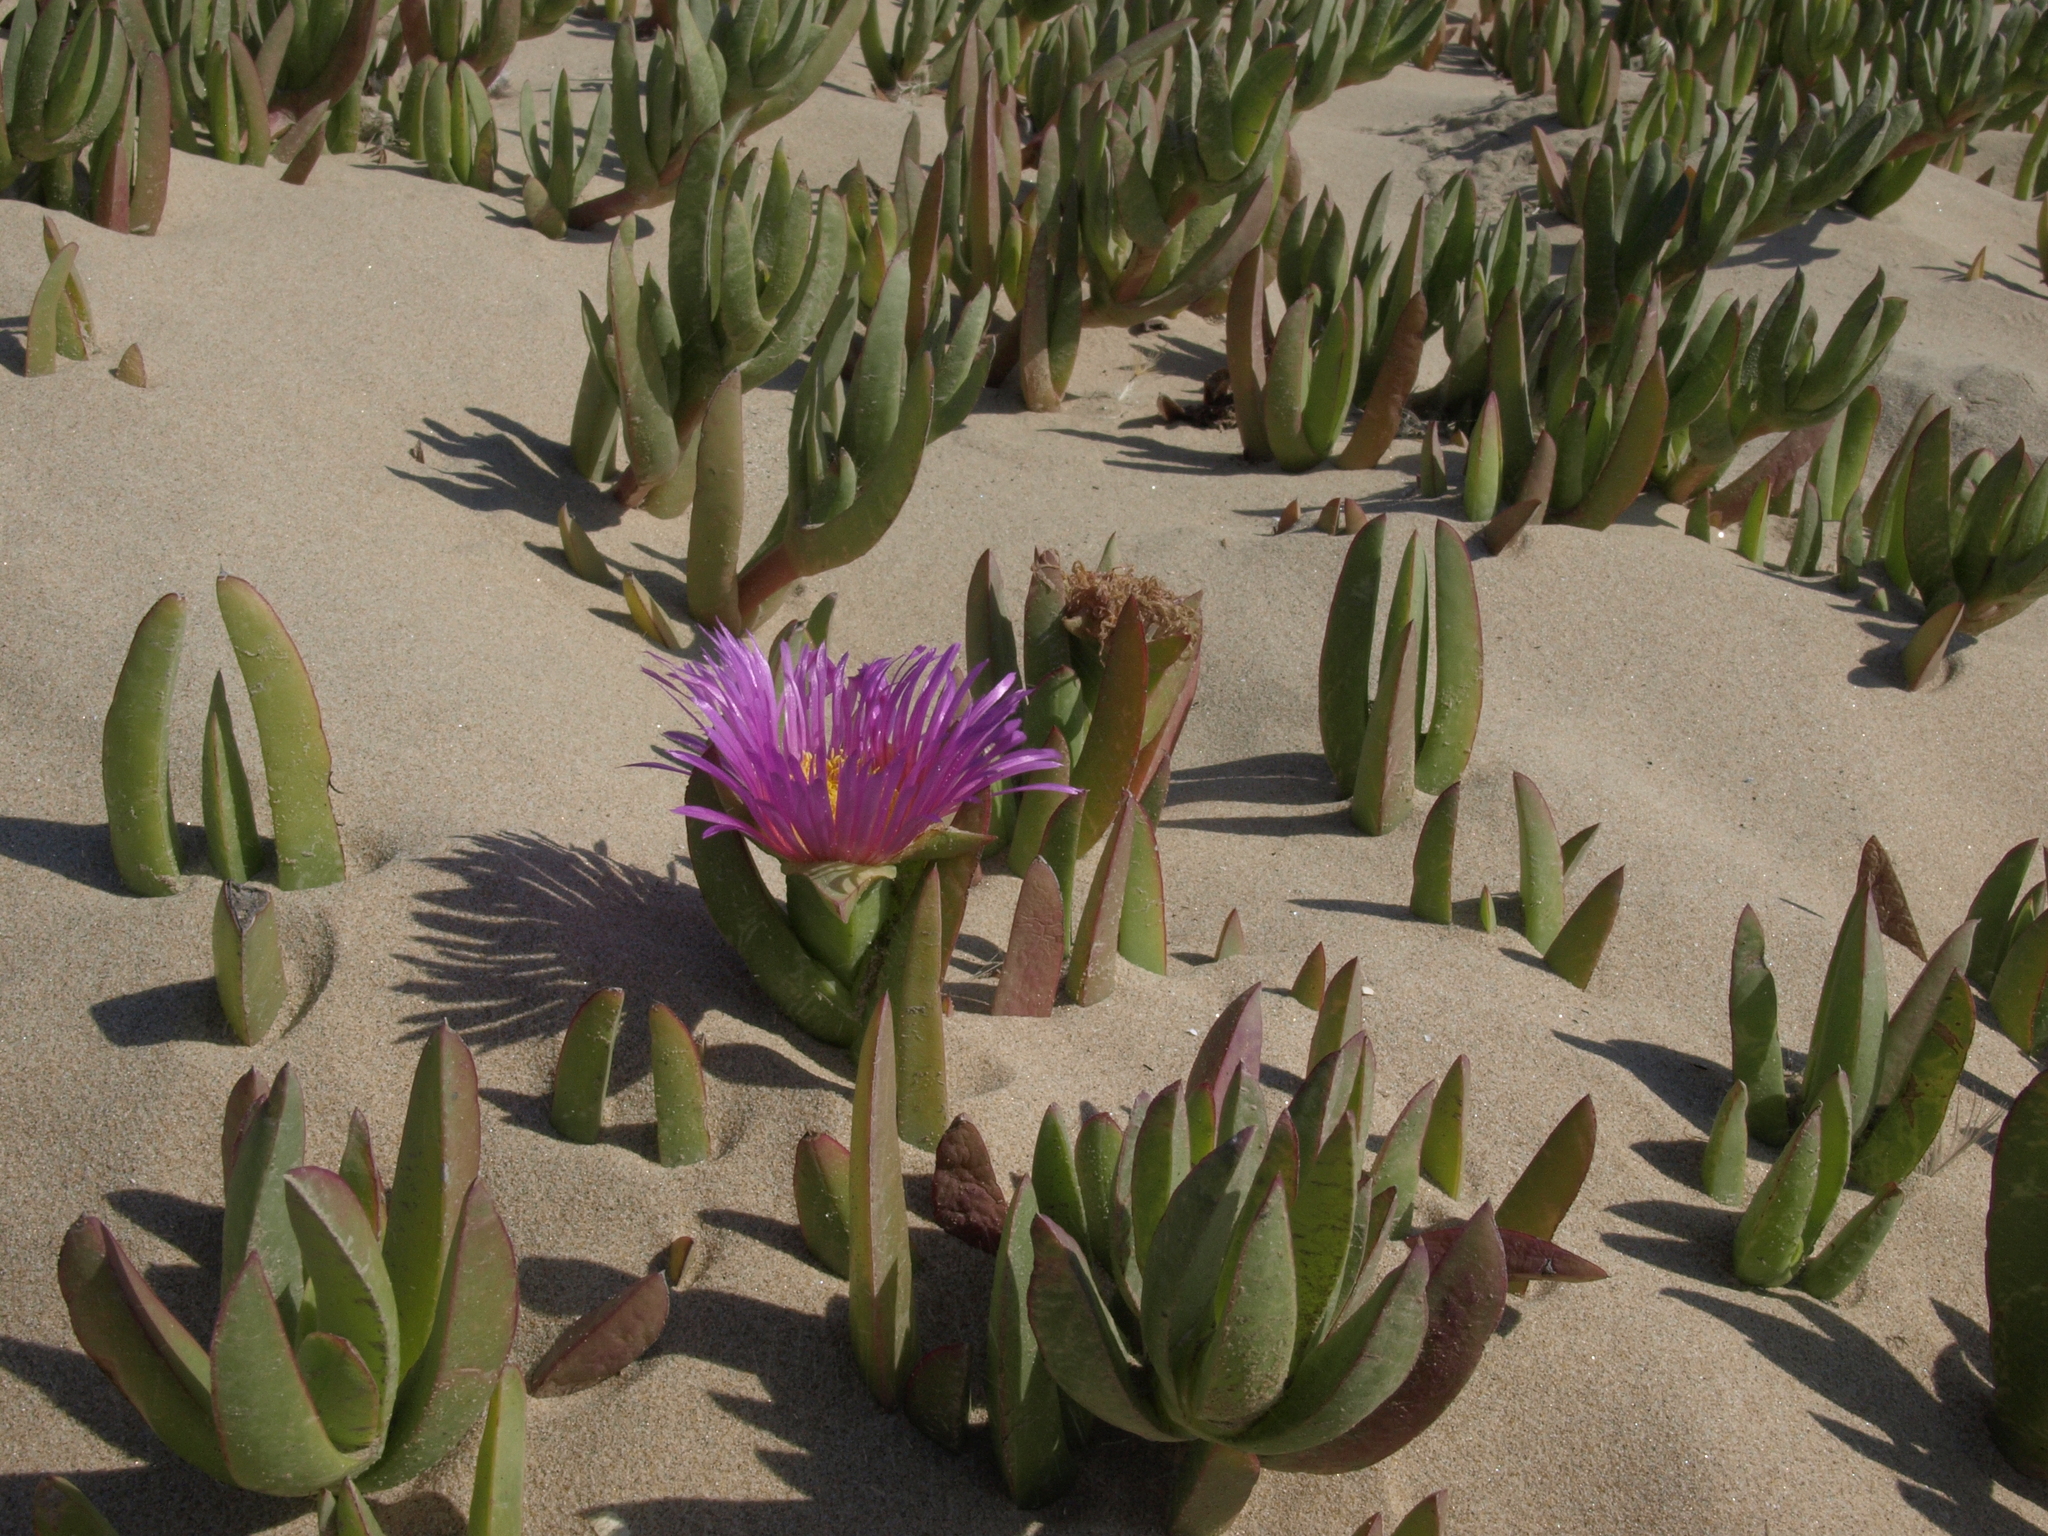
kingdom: Plantae
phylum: Tracheophyta
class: Magnoliopsida
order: Caryophyllales
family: Aizoaceae
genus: Carpobrotus
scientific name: Carpobrotus chilensis
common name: Sea fig
